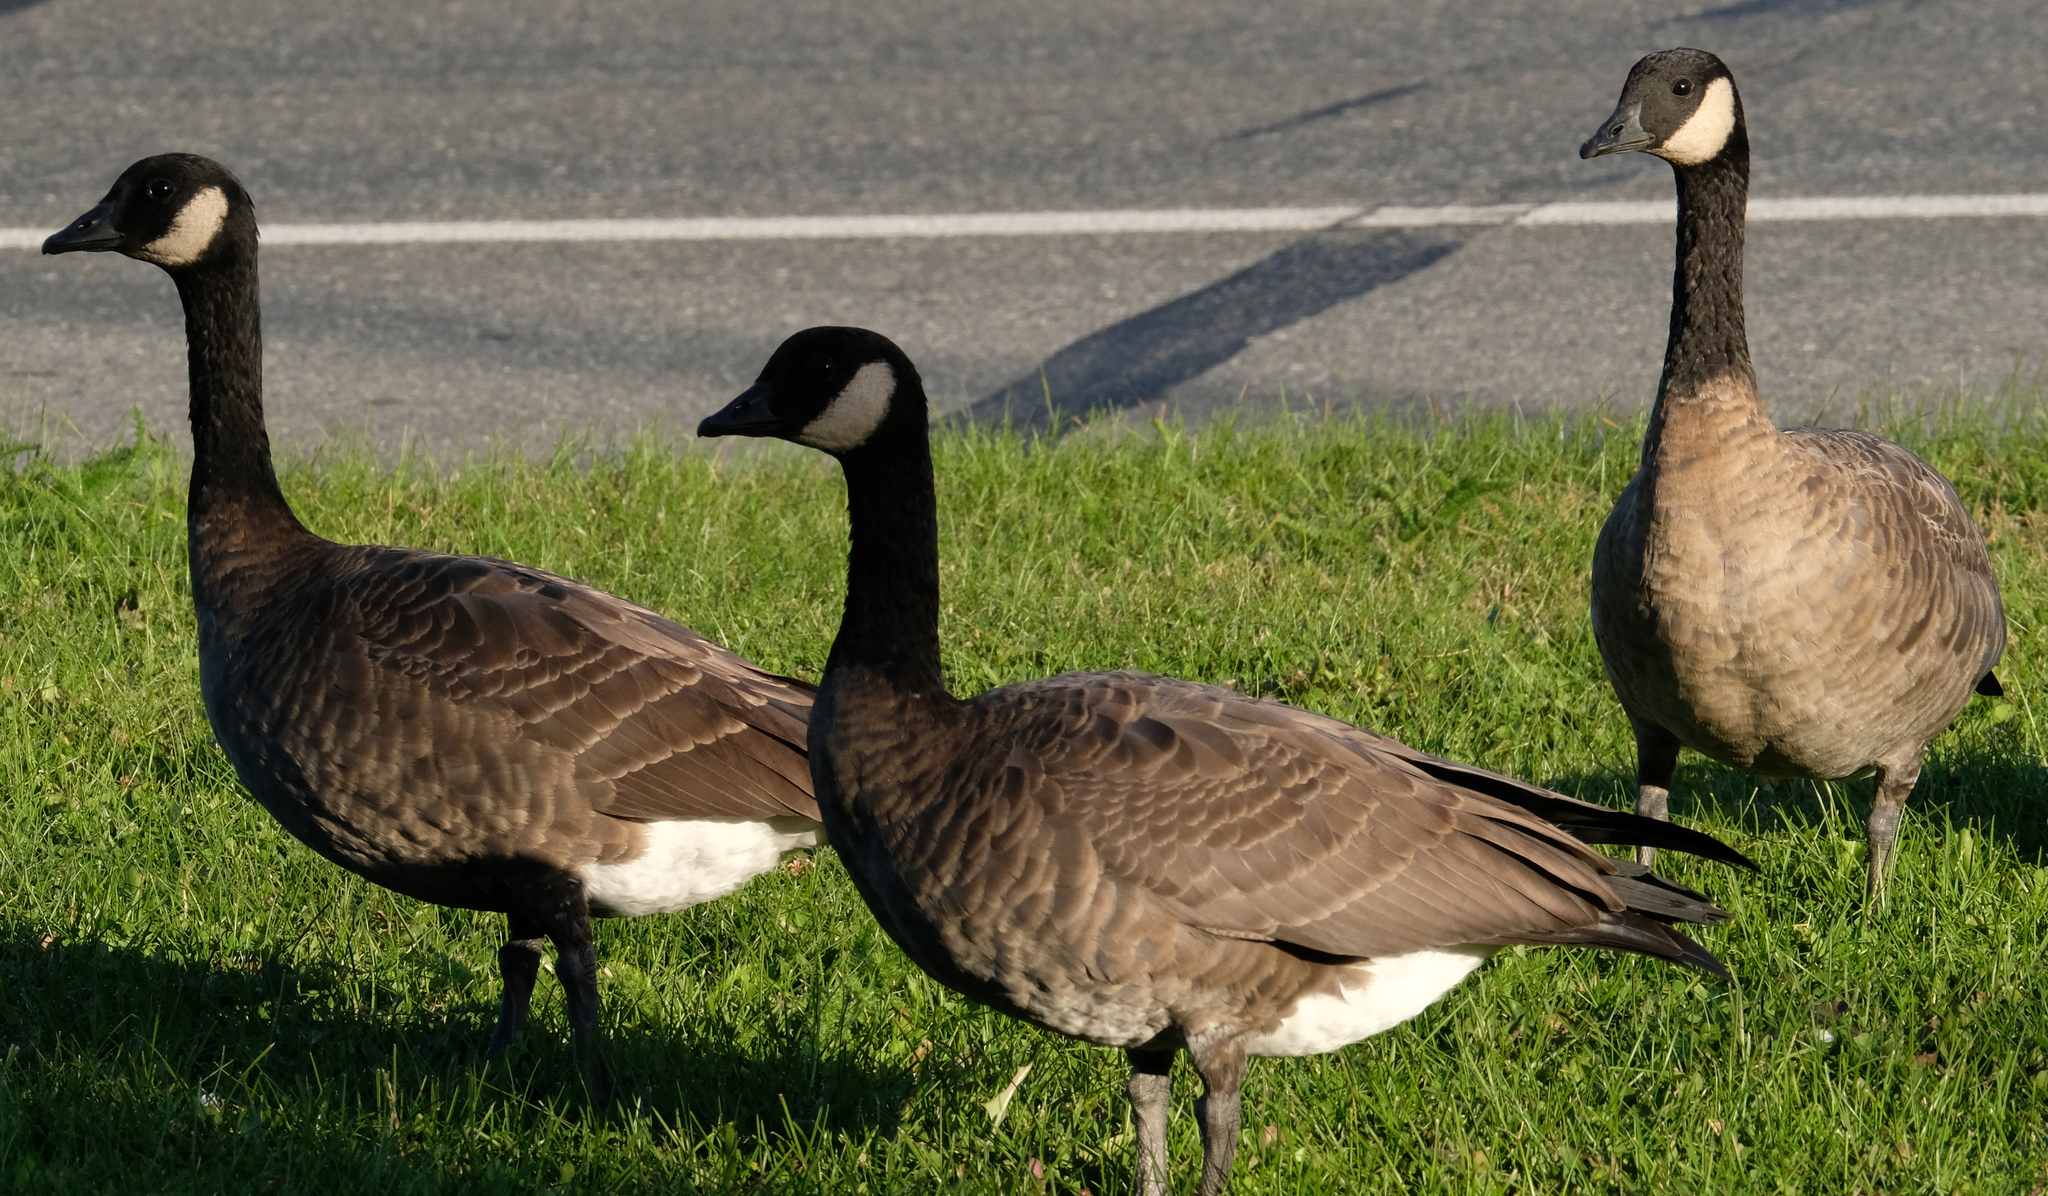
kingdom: Animalia
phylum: Chordata
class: Aves
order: Anseriformes
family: Anatidae
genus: Branta
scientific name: Branta canadensis
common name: Canada goose
